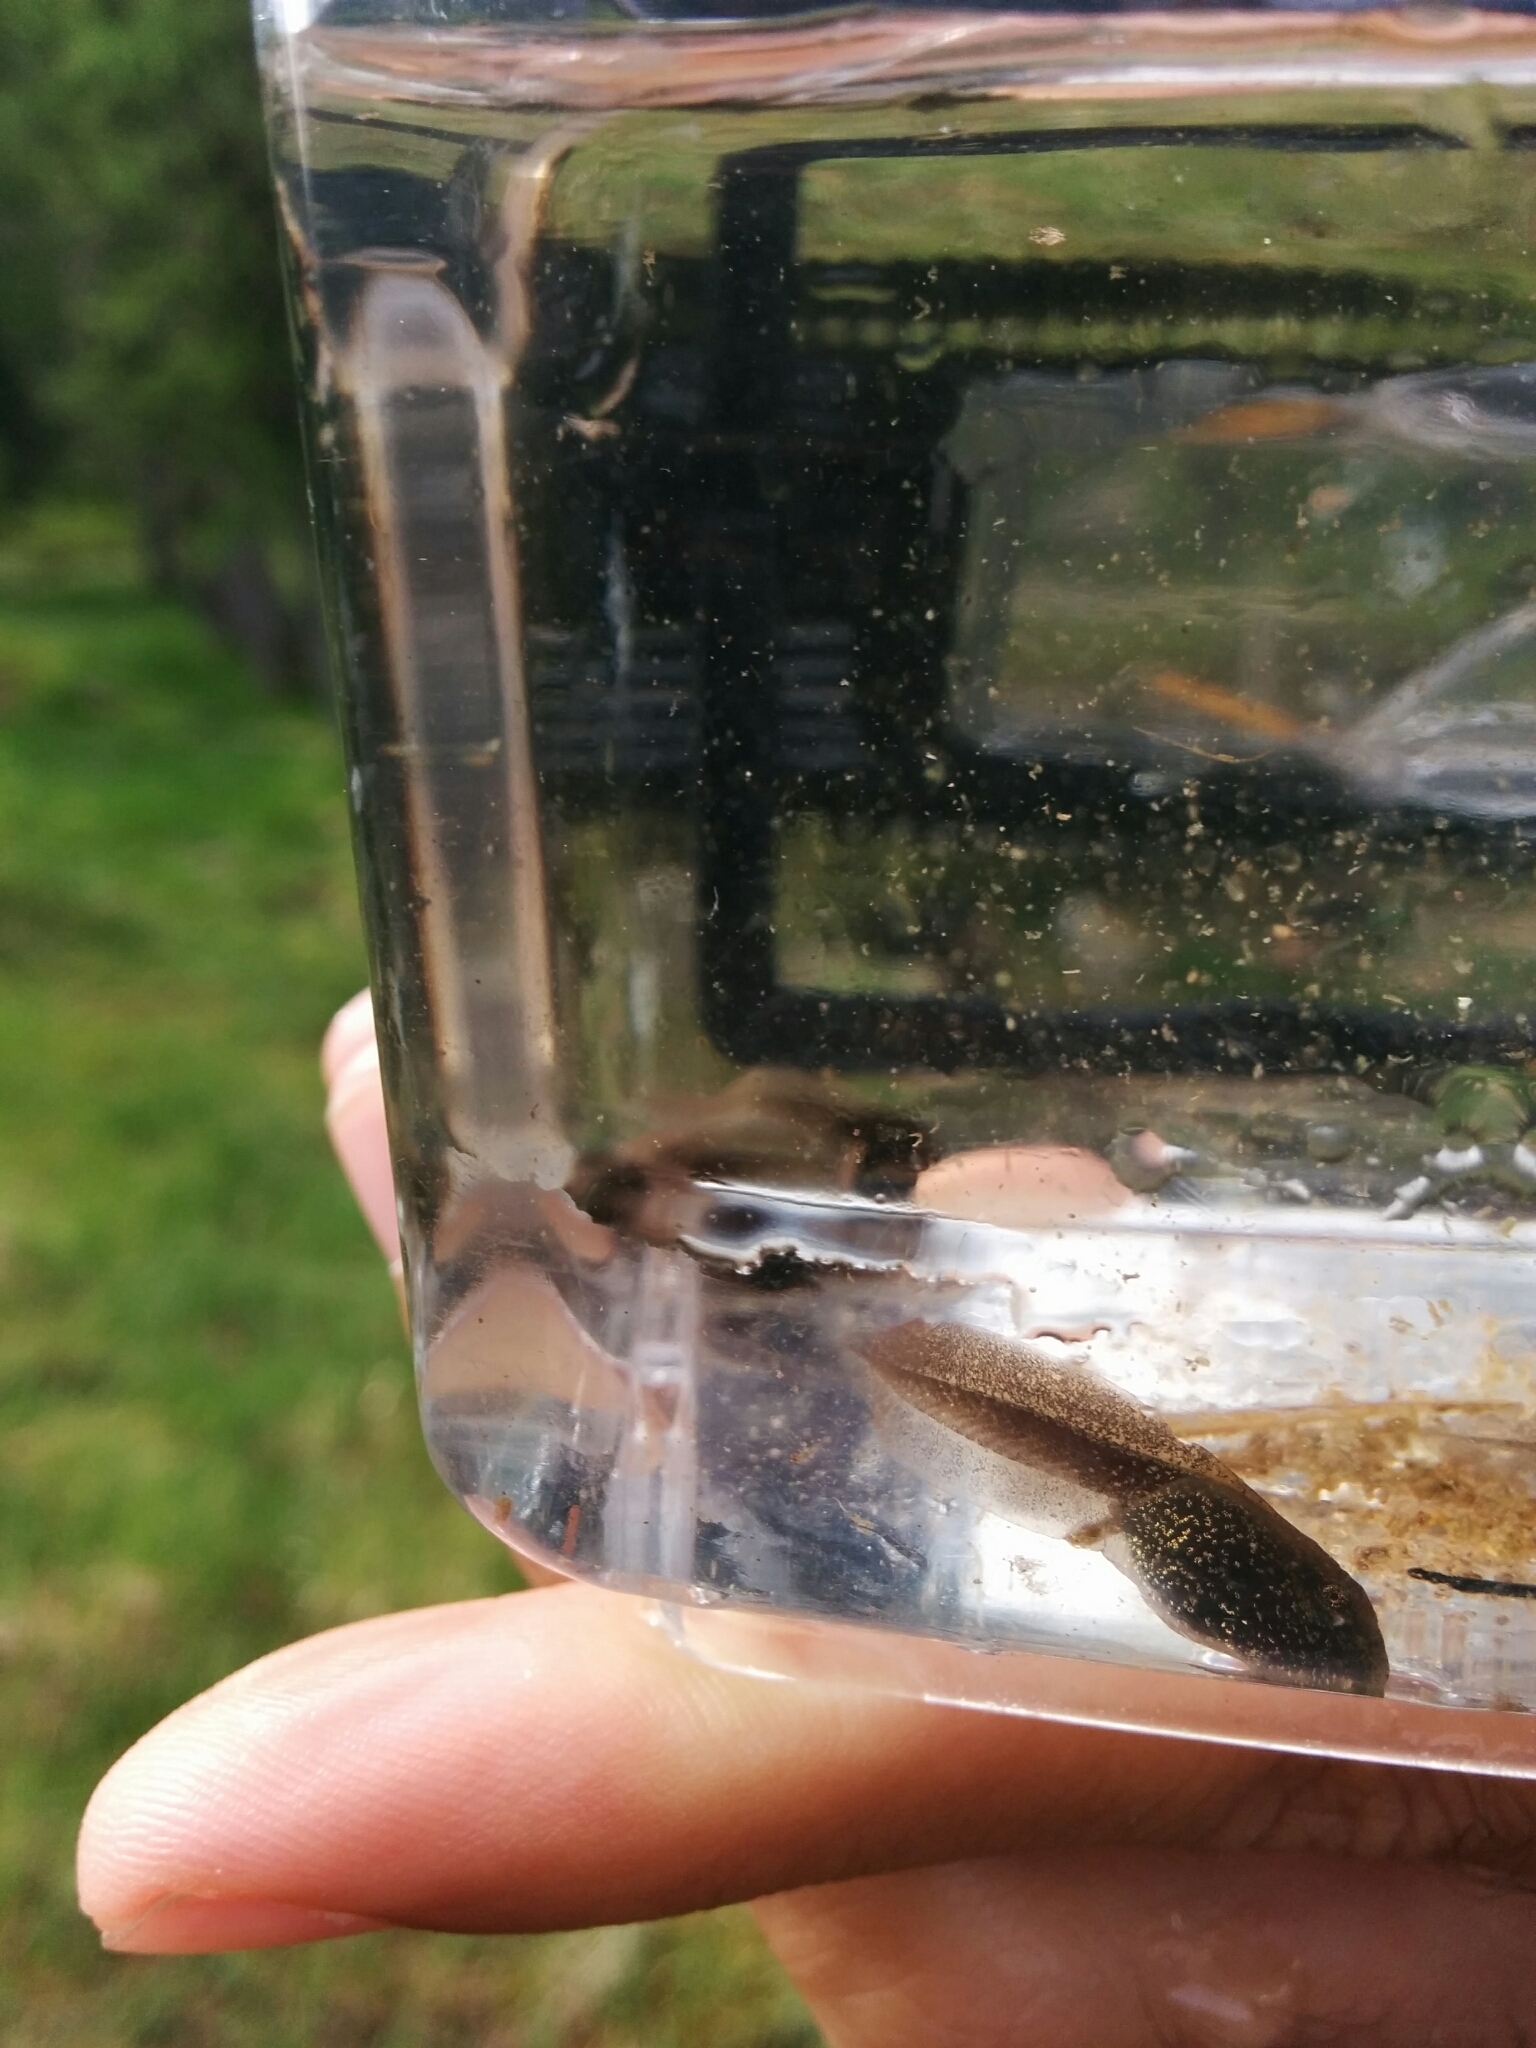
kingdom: Animalia
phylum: Chordata
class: Amphibia
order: Anura
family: Ranidae
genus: Rana
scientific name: Rana temporaria
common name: Common frog
